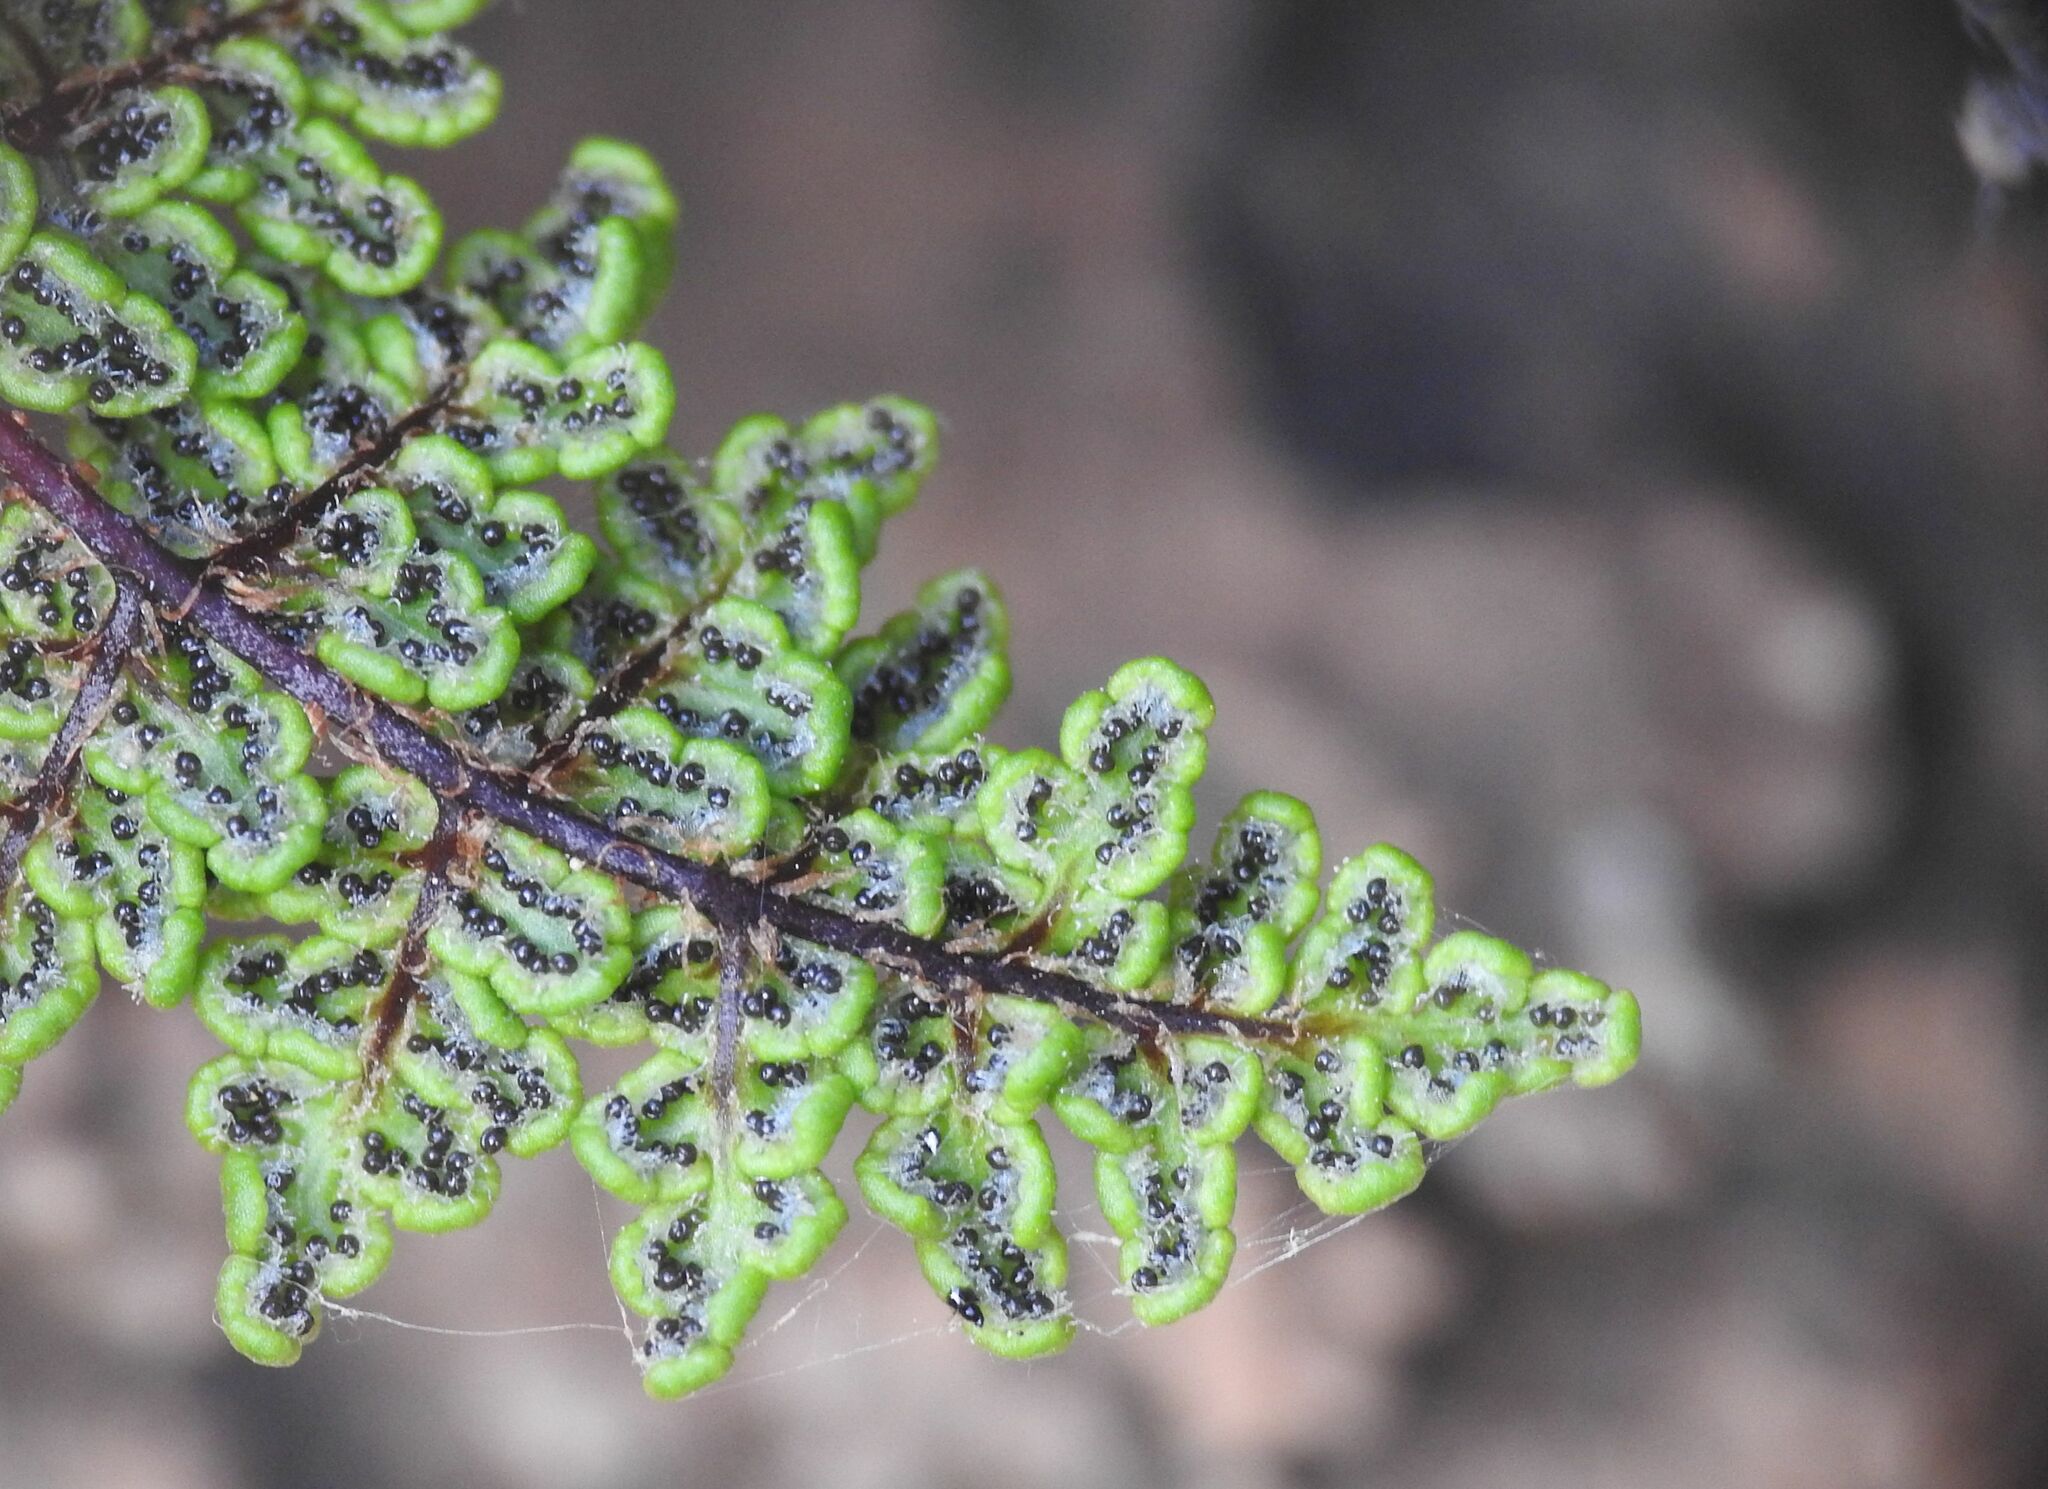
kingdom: Plantae
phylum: Tracheophyta
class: Polypodiopsida
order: Polypodiales
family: Pteridaceae
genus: Oeosporangium
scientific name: Oeosporangium pteridioides
